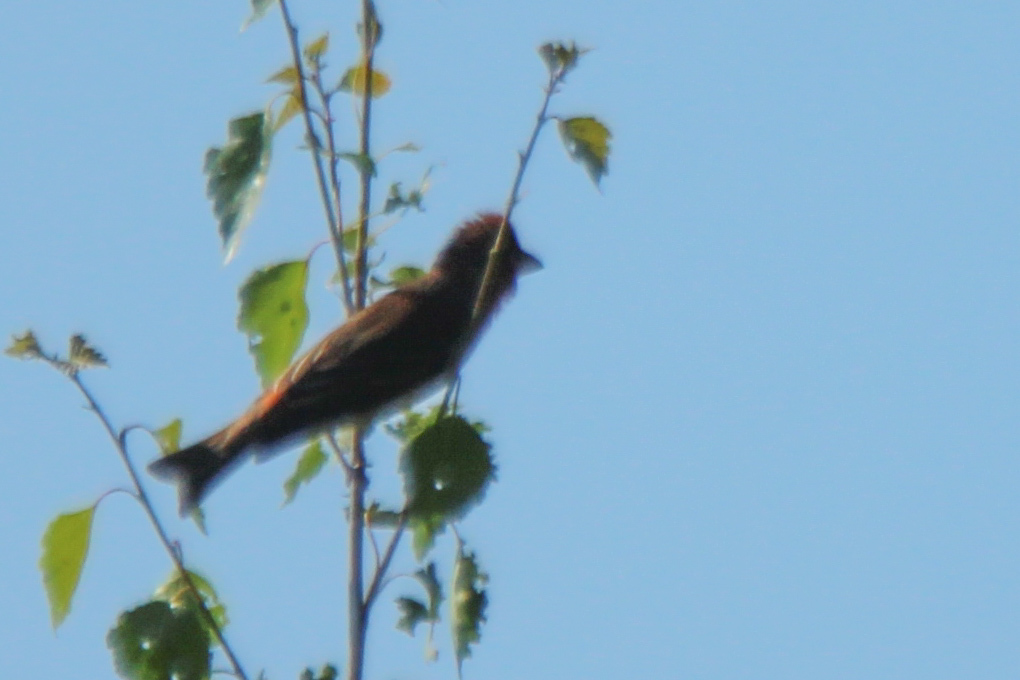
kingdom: Animalia
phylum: Chordata
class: Aves
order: Passeriformes
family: Fringillidae
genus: Carpodacus
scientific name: Carpodacus erythrinus
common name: Common rosefinch
